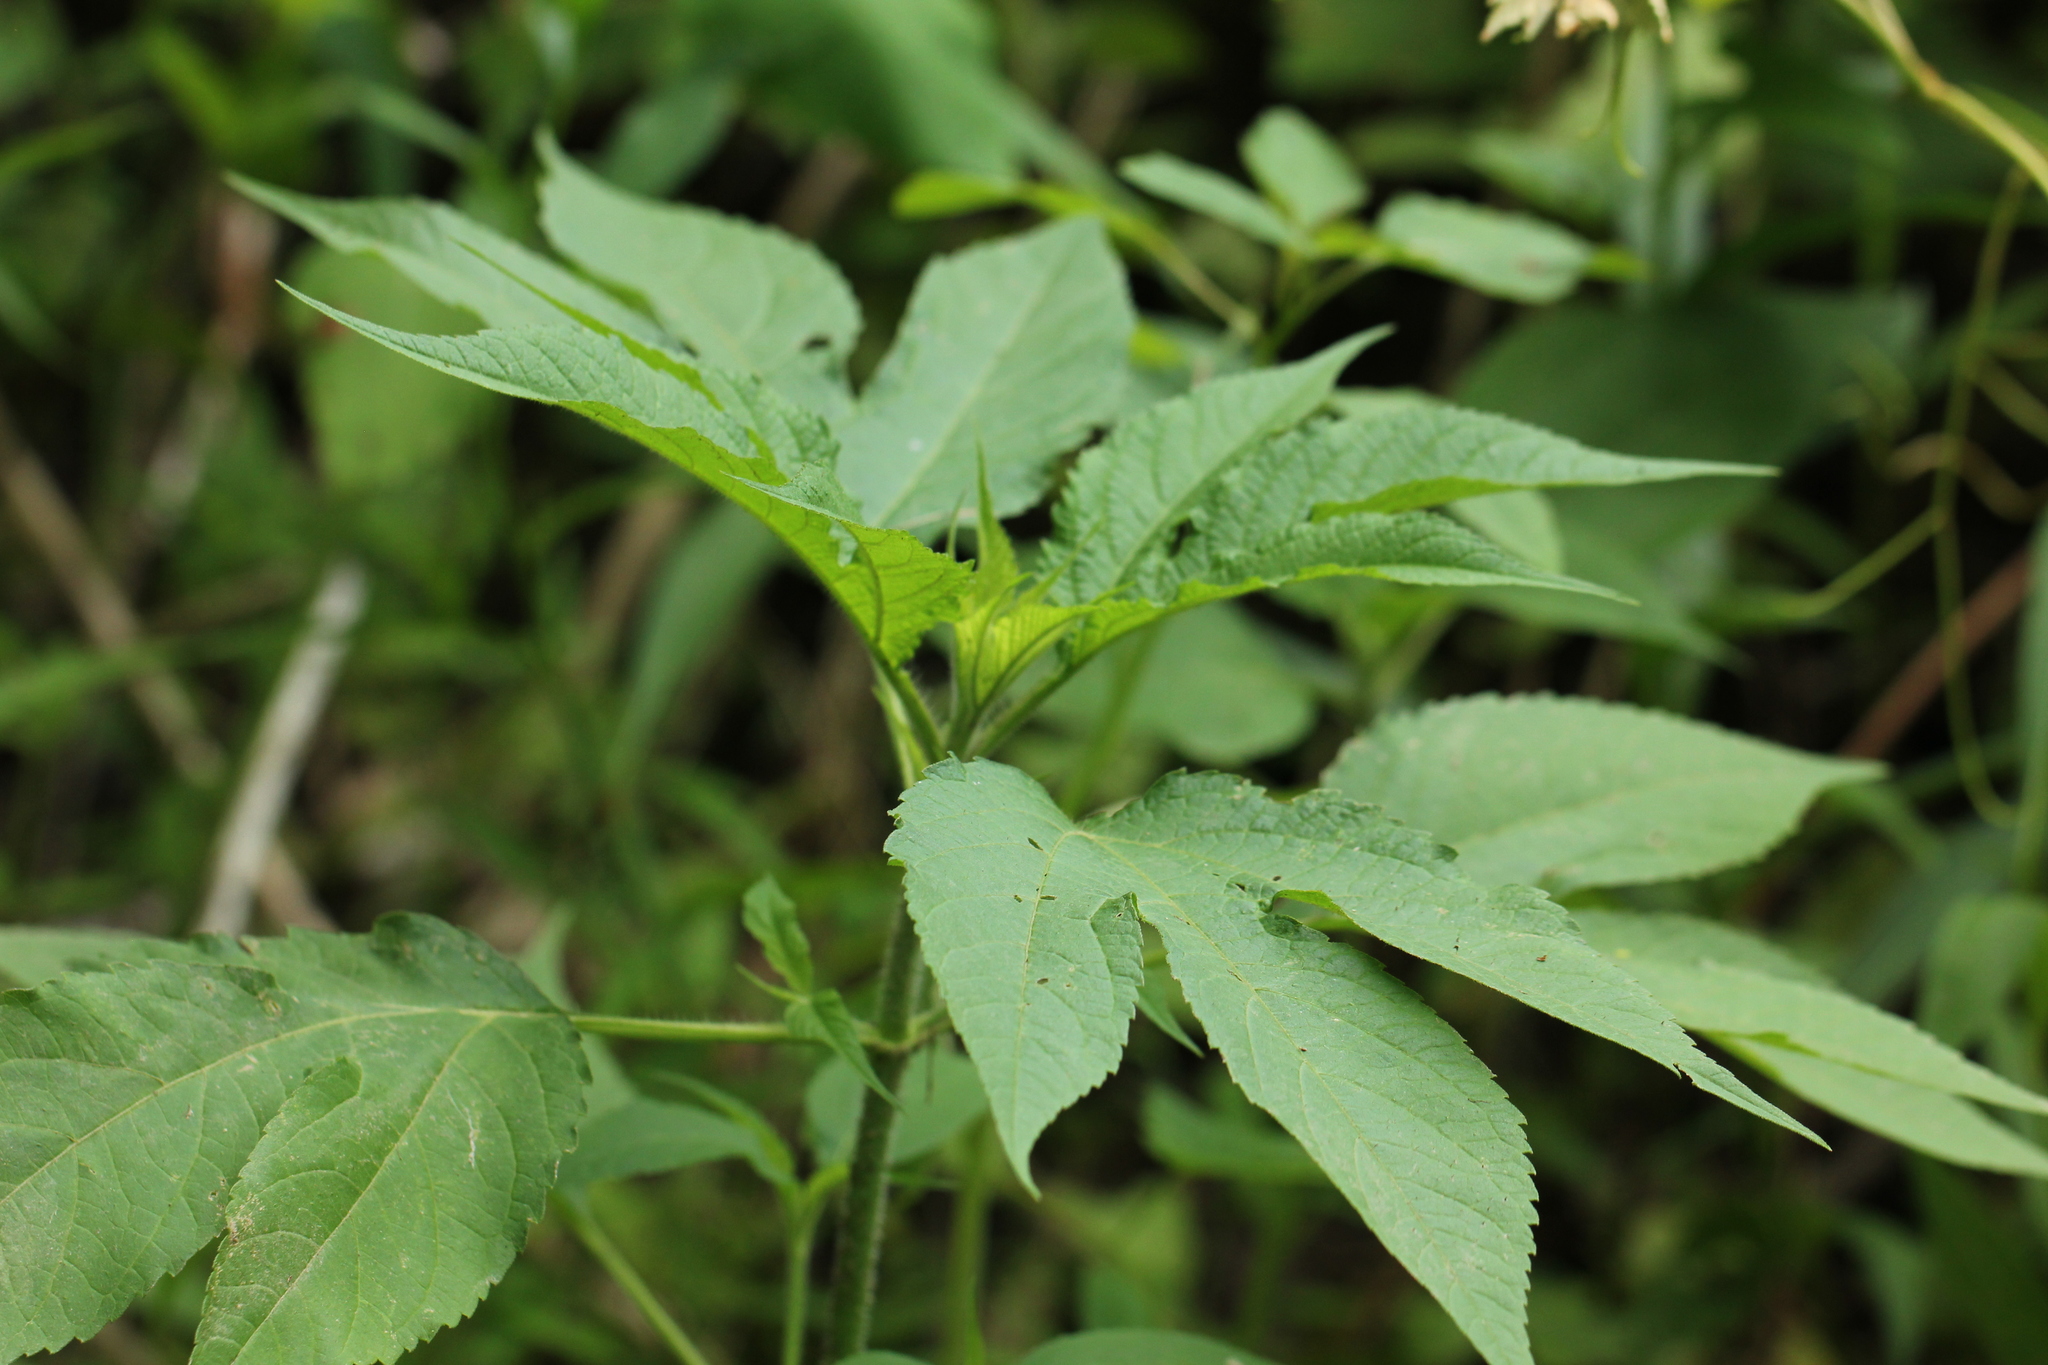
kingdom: Plantae
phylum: Tracheophyta
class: Magnoliopsida
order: Asterales
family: Asteraceae
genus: Ambrosia
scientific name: Ambrosia trifida
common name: Giant ragweed
